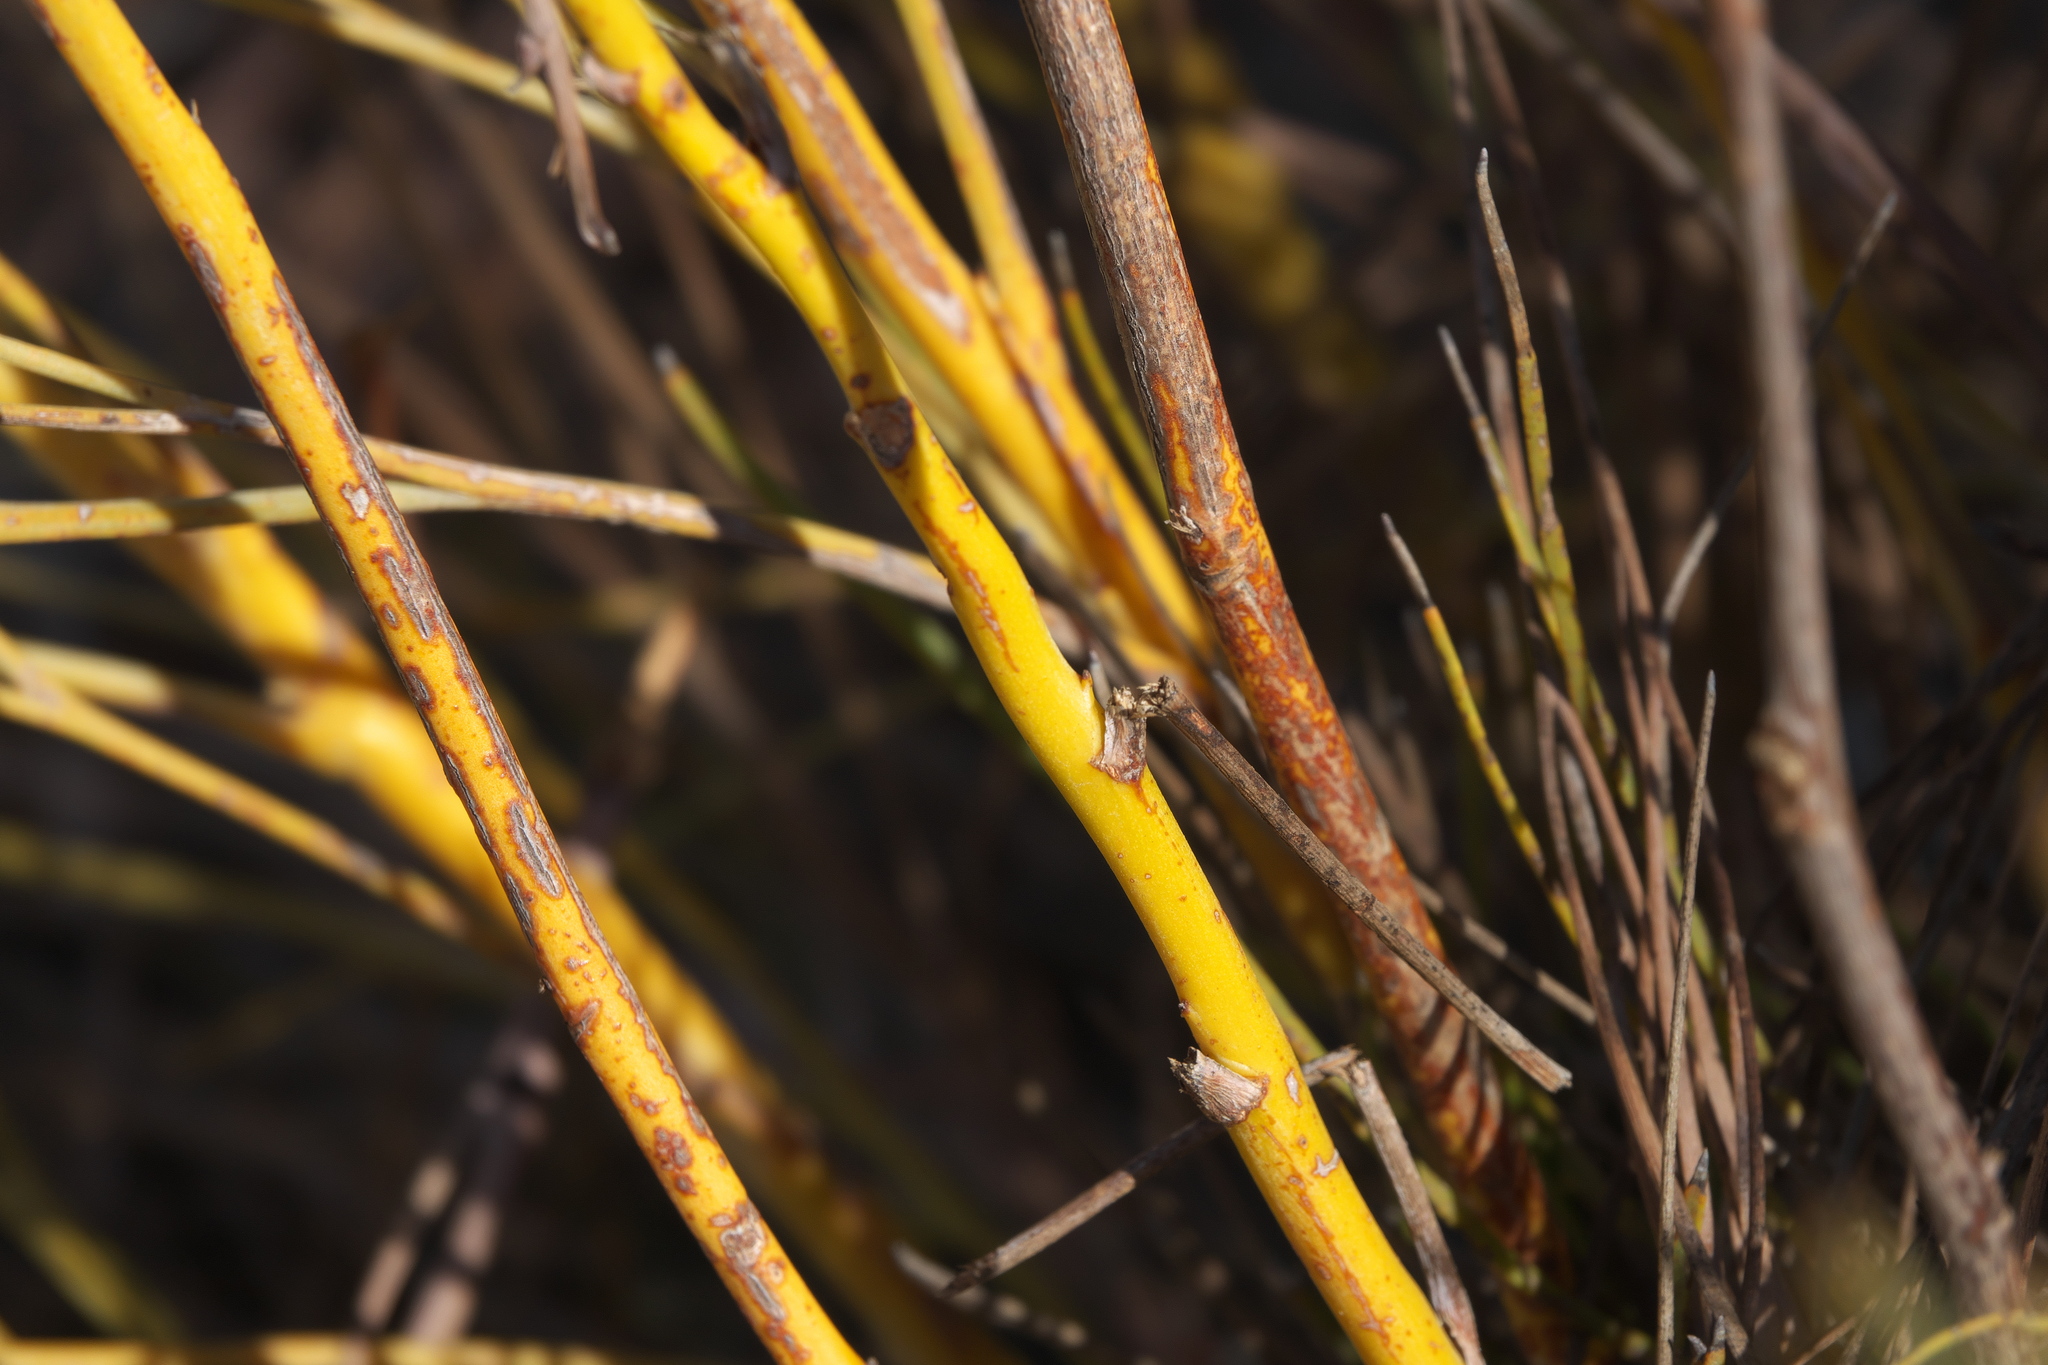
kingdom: Plantae
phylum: Tracheophyta
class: Magnoliopsida
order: Proteales
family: Proteaceae
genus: Stirlingia
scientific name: Stirlingia latifolia
